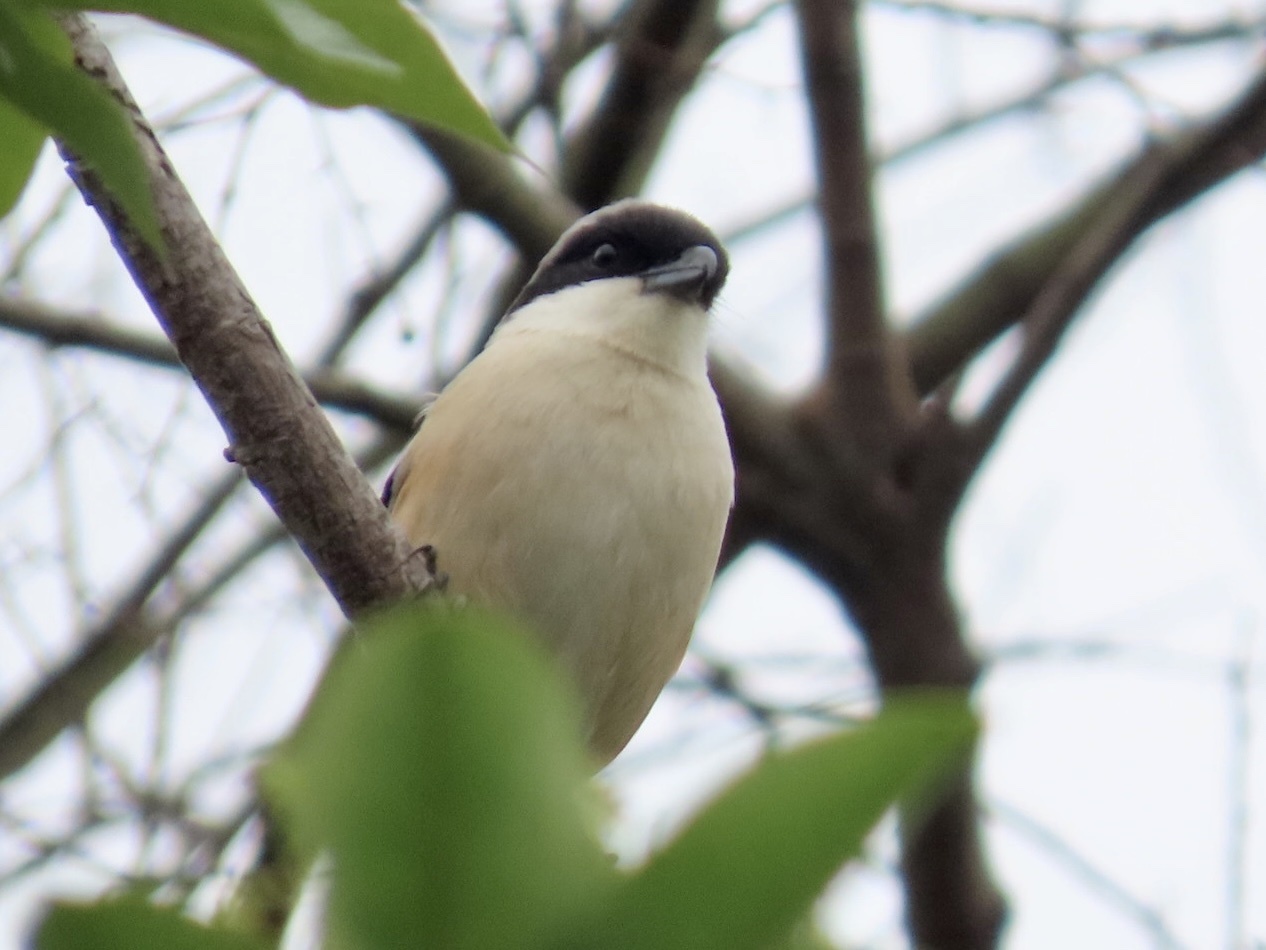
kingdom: Animalia
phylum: Chordata
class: Aves
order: Passeriformes
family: Laniidae
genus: Lanius
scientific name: Lanius schach
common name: Long-tailed shrike
